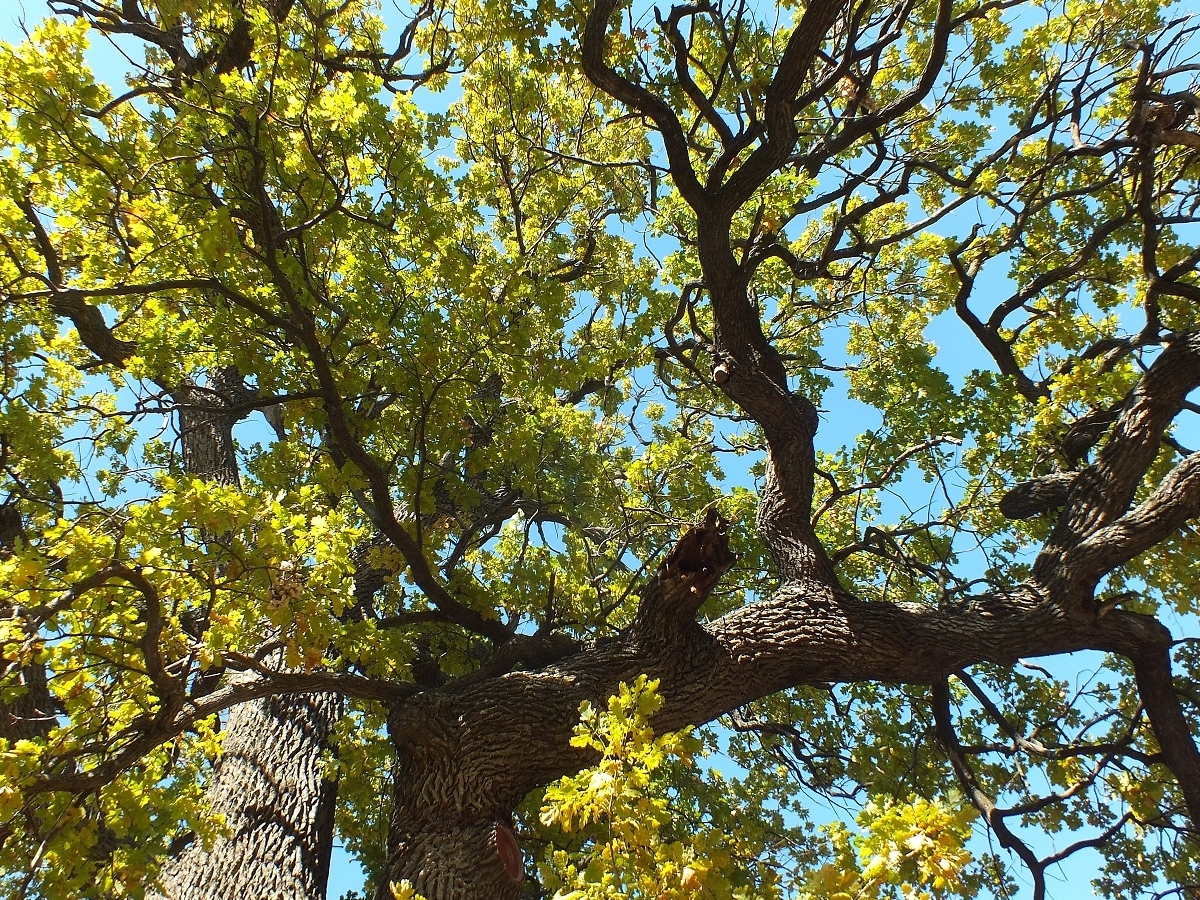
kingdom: Plantae
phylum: Tracheophyta
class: Magnoliopsida
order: Fagales
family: Fagaceae
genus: Quercus
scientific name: Quercus robur
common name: Pedunculate oak
